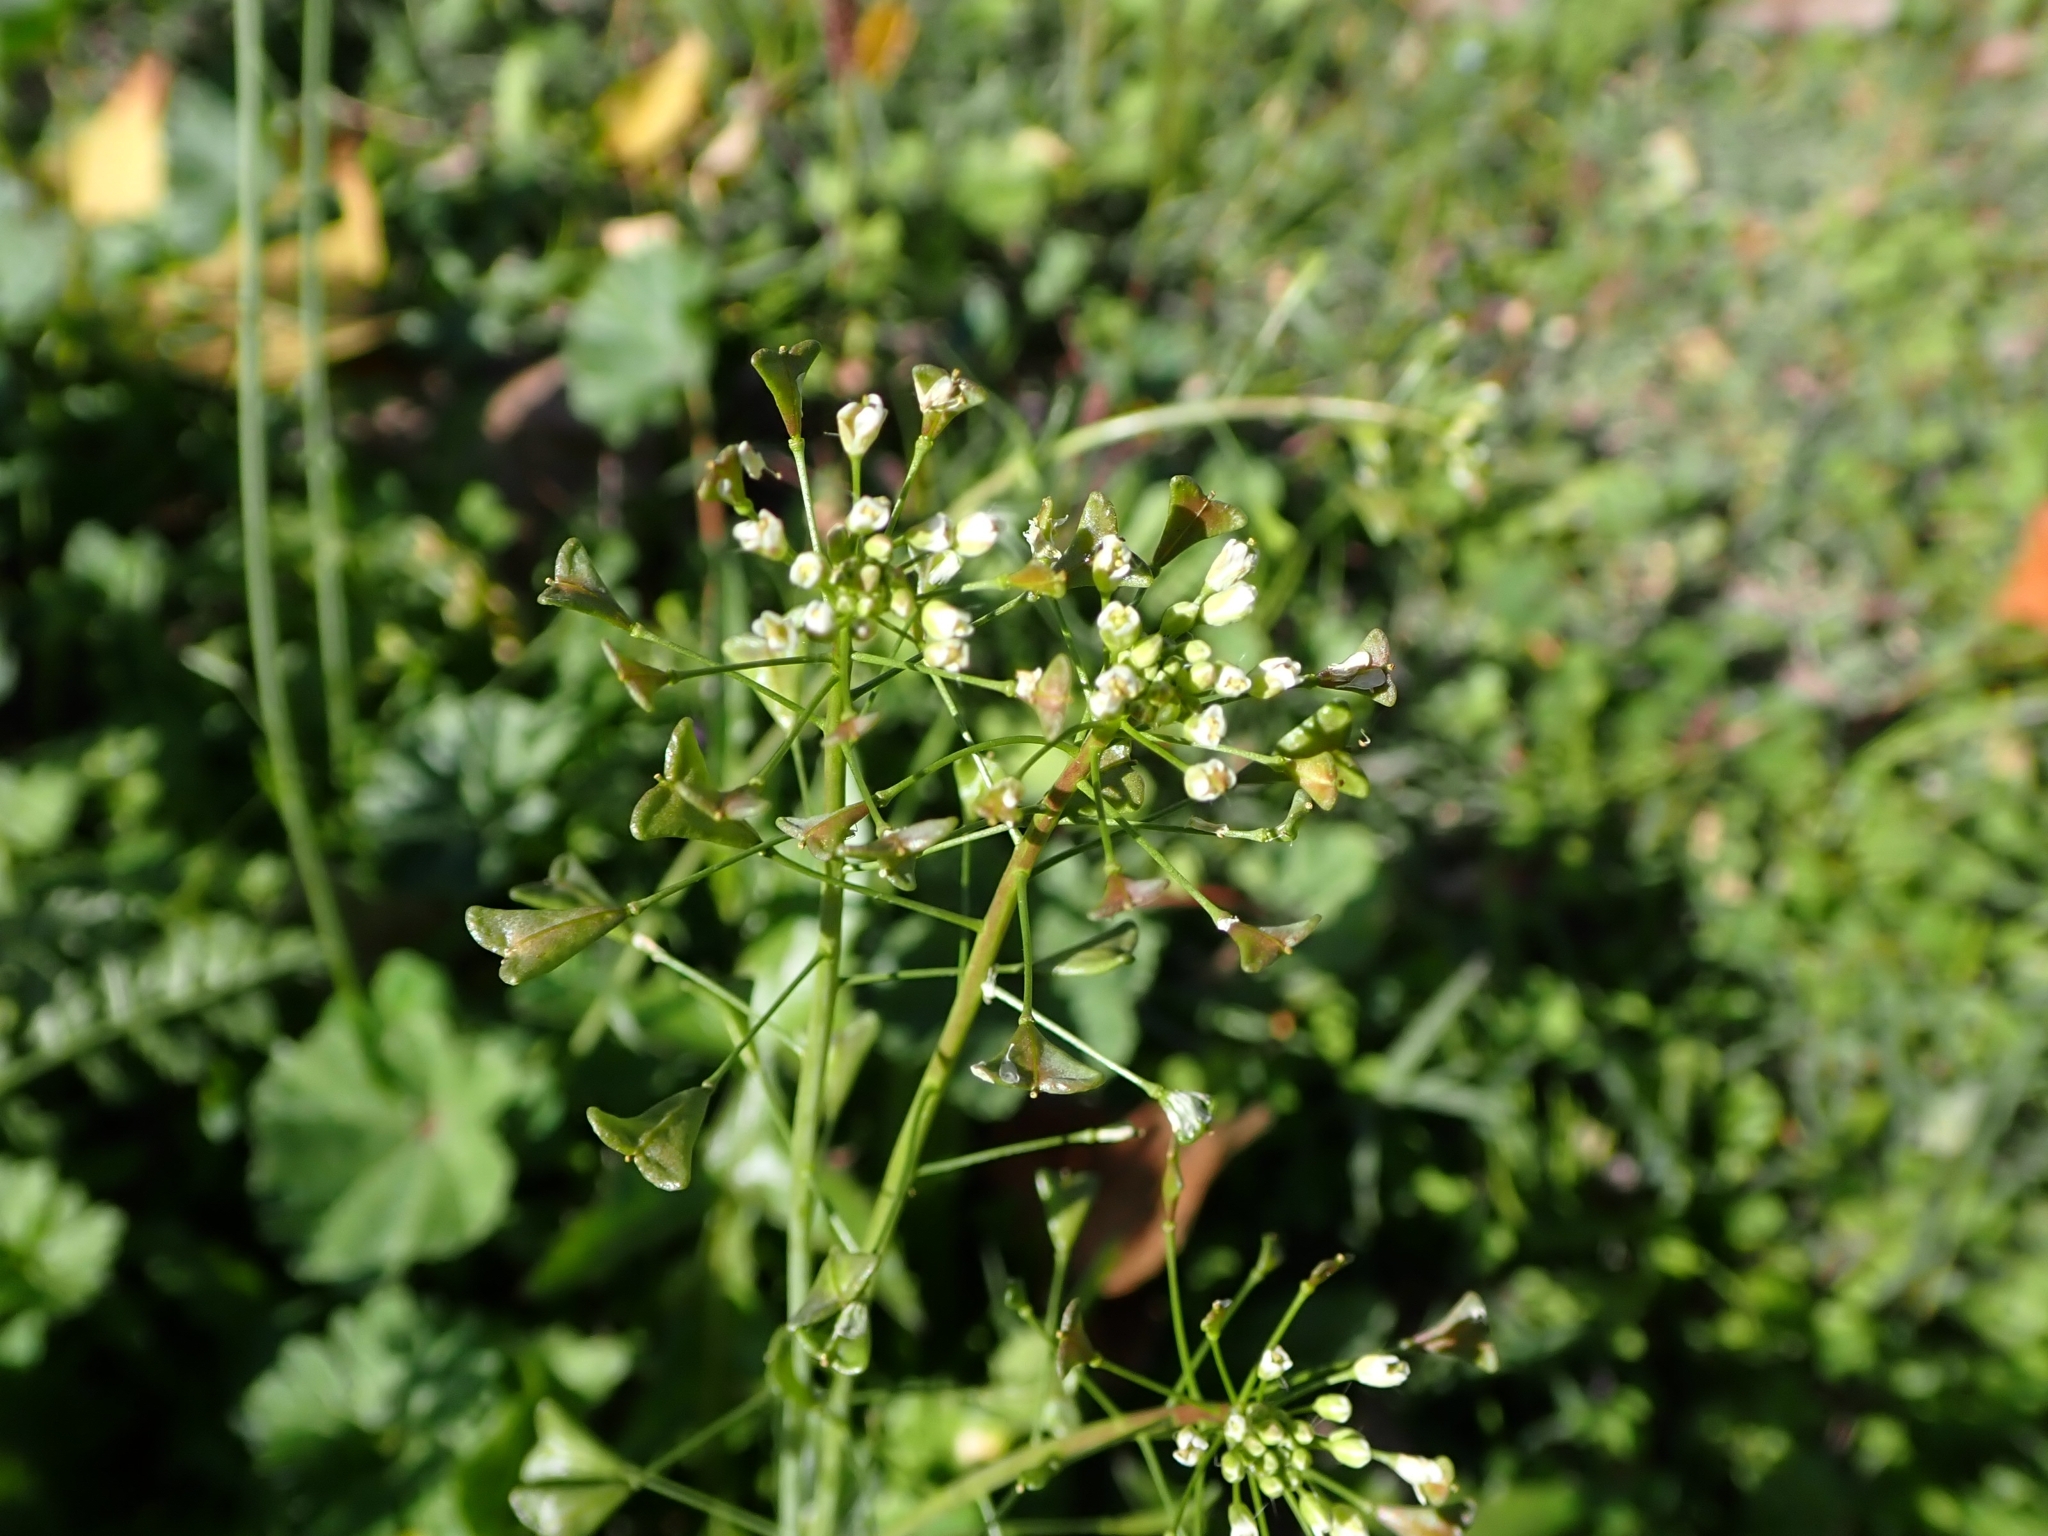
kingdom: Plantae
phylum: Tracheophyta
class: Magnoliopsida
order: Brassicales
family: Brassicaceae
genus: Capsella
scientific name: Capsella bursa-pastoris
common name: Shepherd's purse
